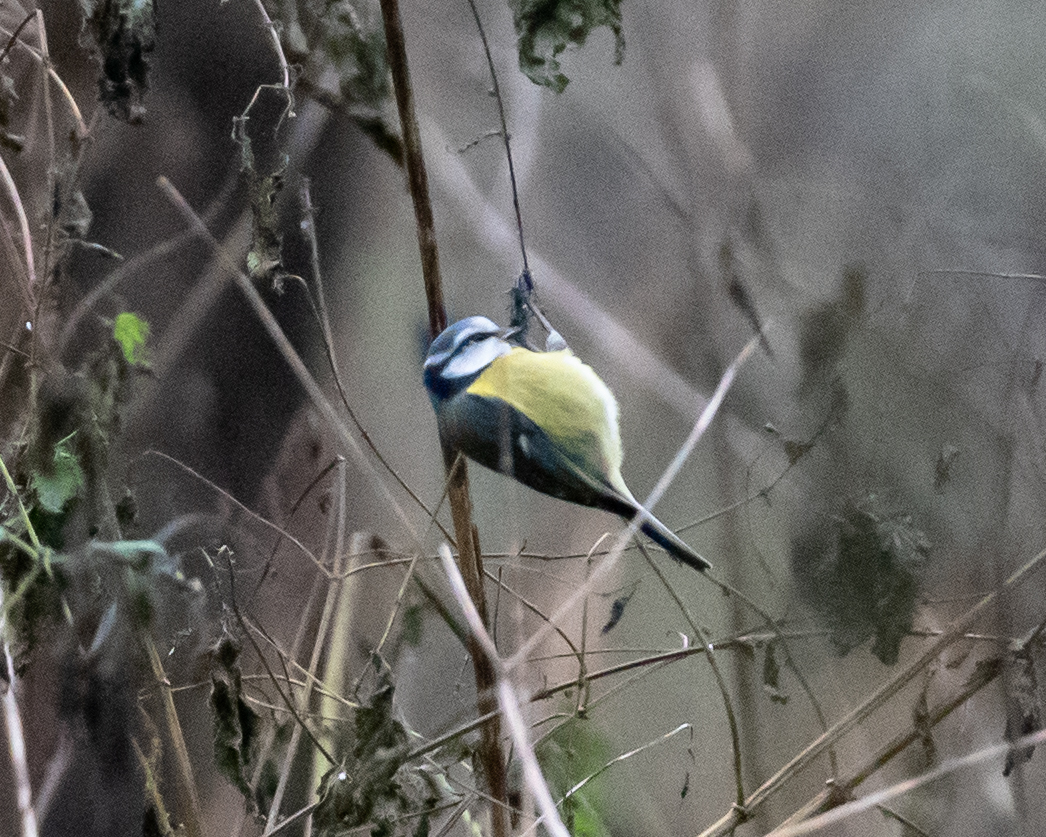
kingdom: Animalia
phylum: Chordata
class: Aves
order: Passeriformes
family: Paridae
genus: Cyanistes
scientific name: Cyanistes caeruleus
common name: Eurasian blue tit
